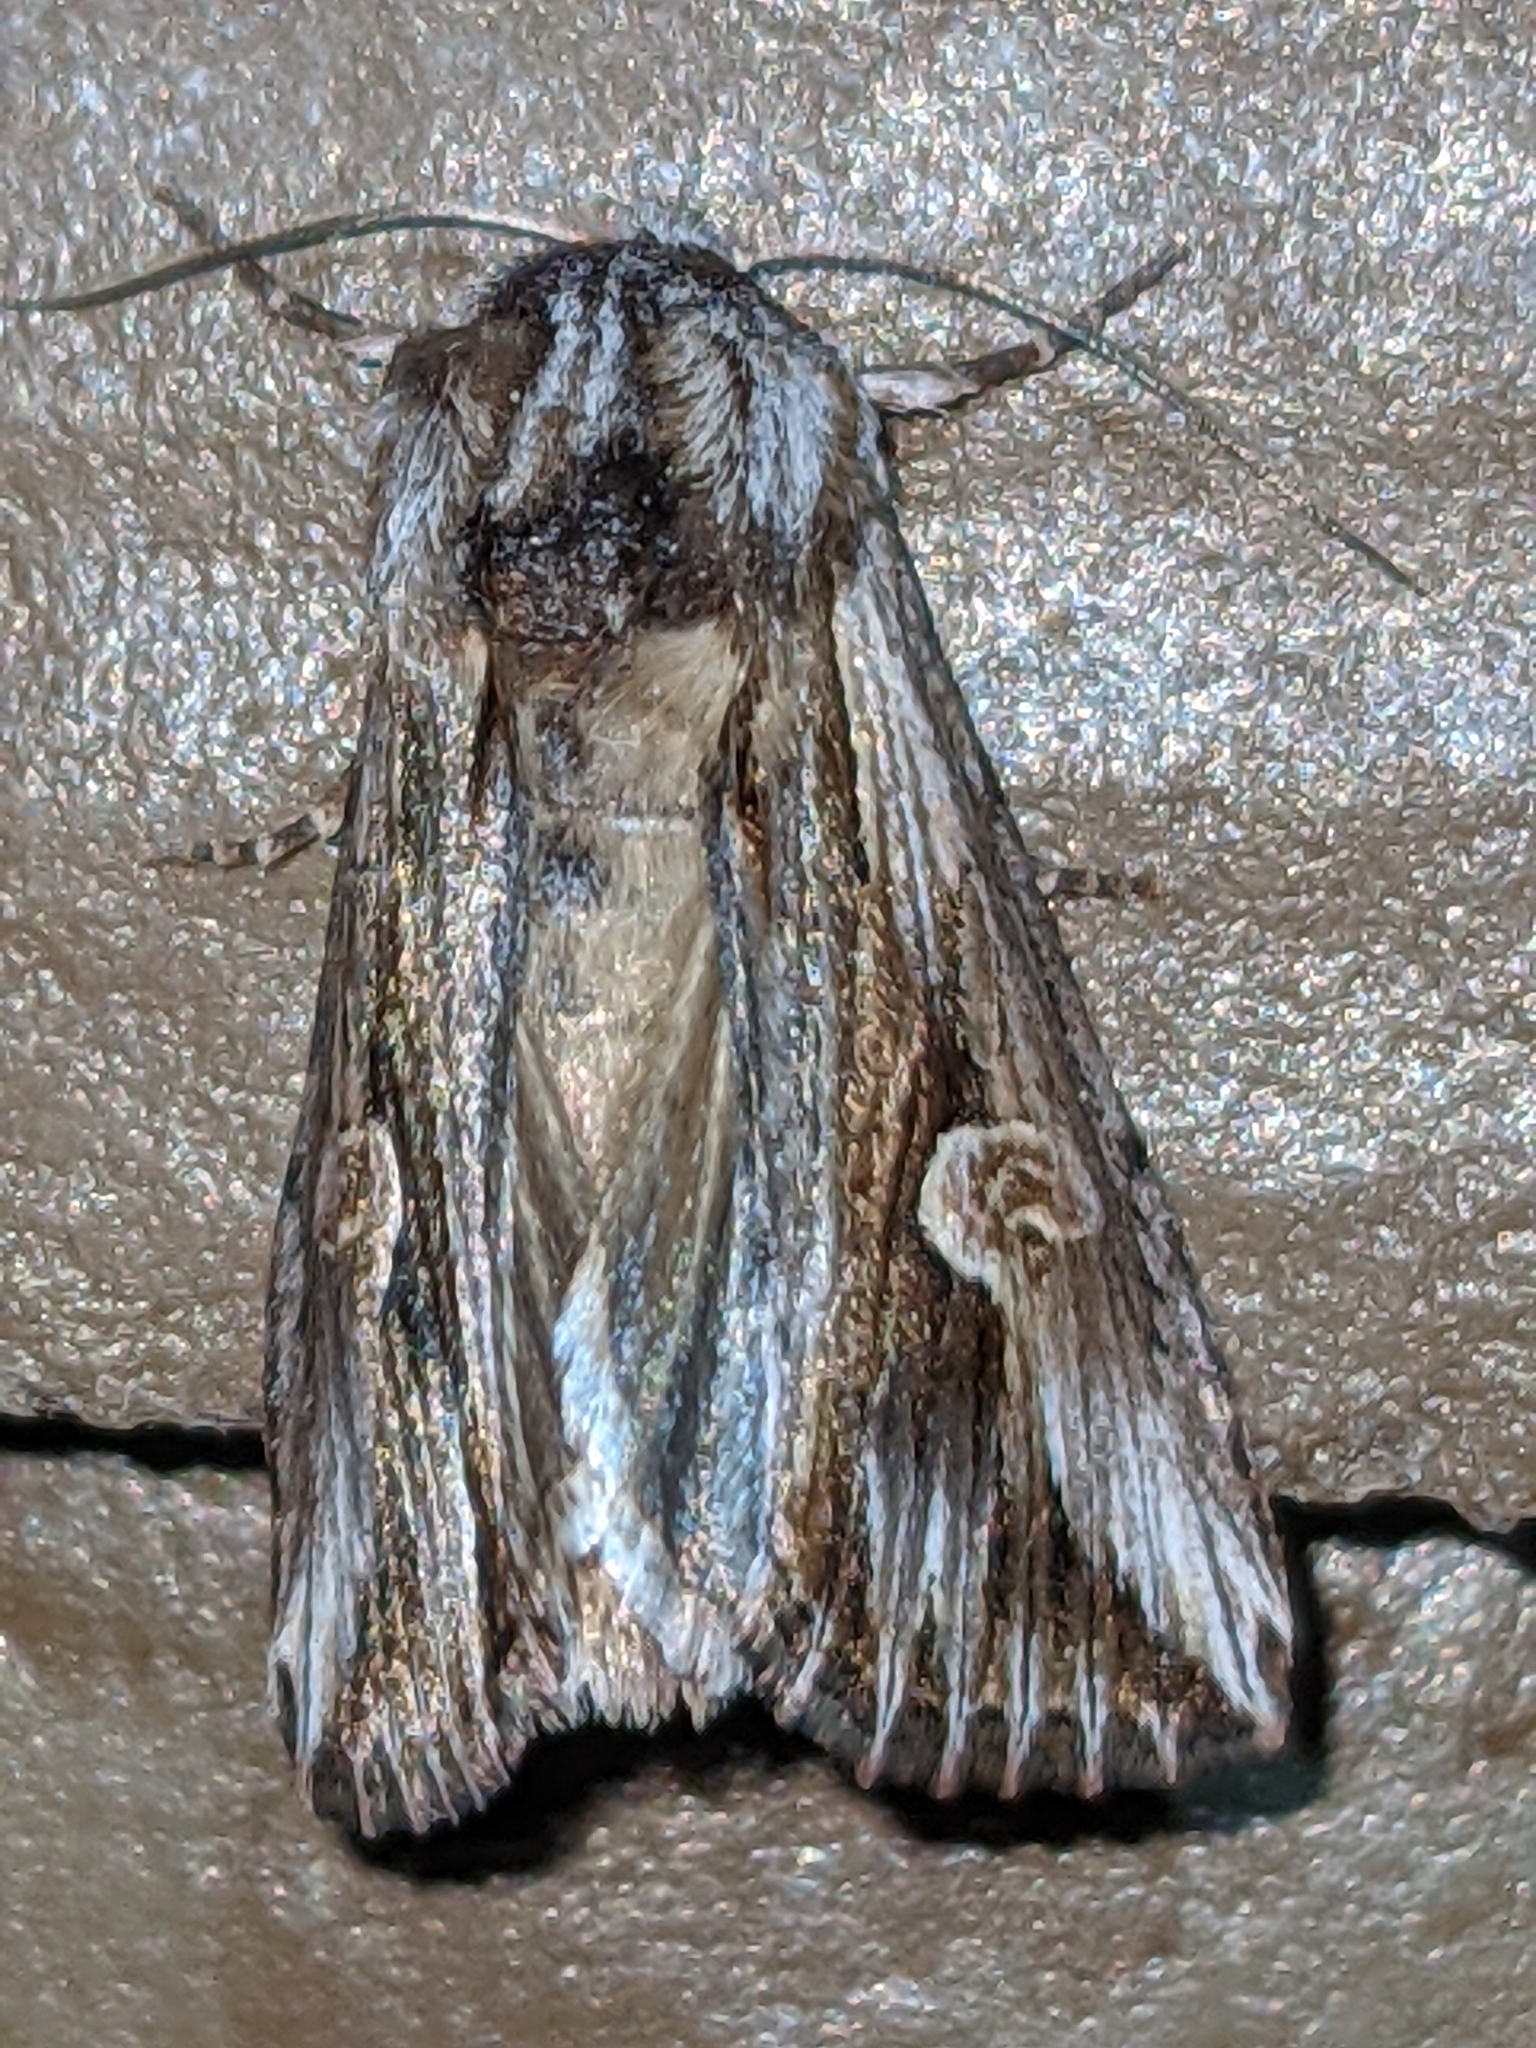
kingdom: Animalia
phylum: Arthropoda
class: Insecta
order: Lepidoptera
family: Noctuidae
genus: Nedra
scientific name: Nedra ramosula
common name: Gray half-spot
